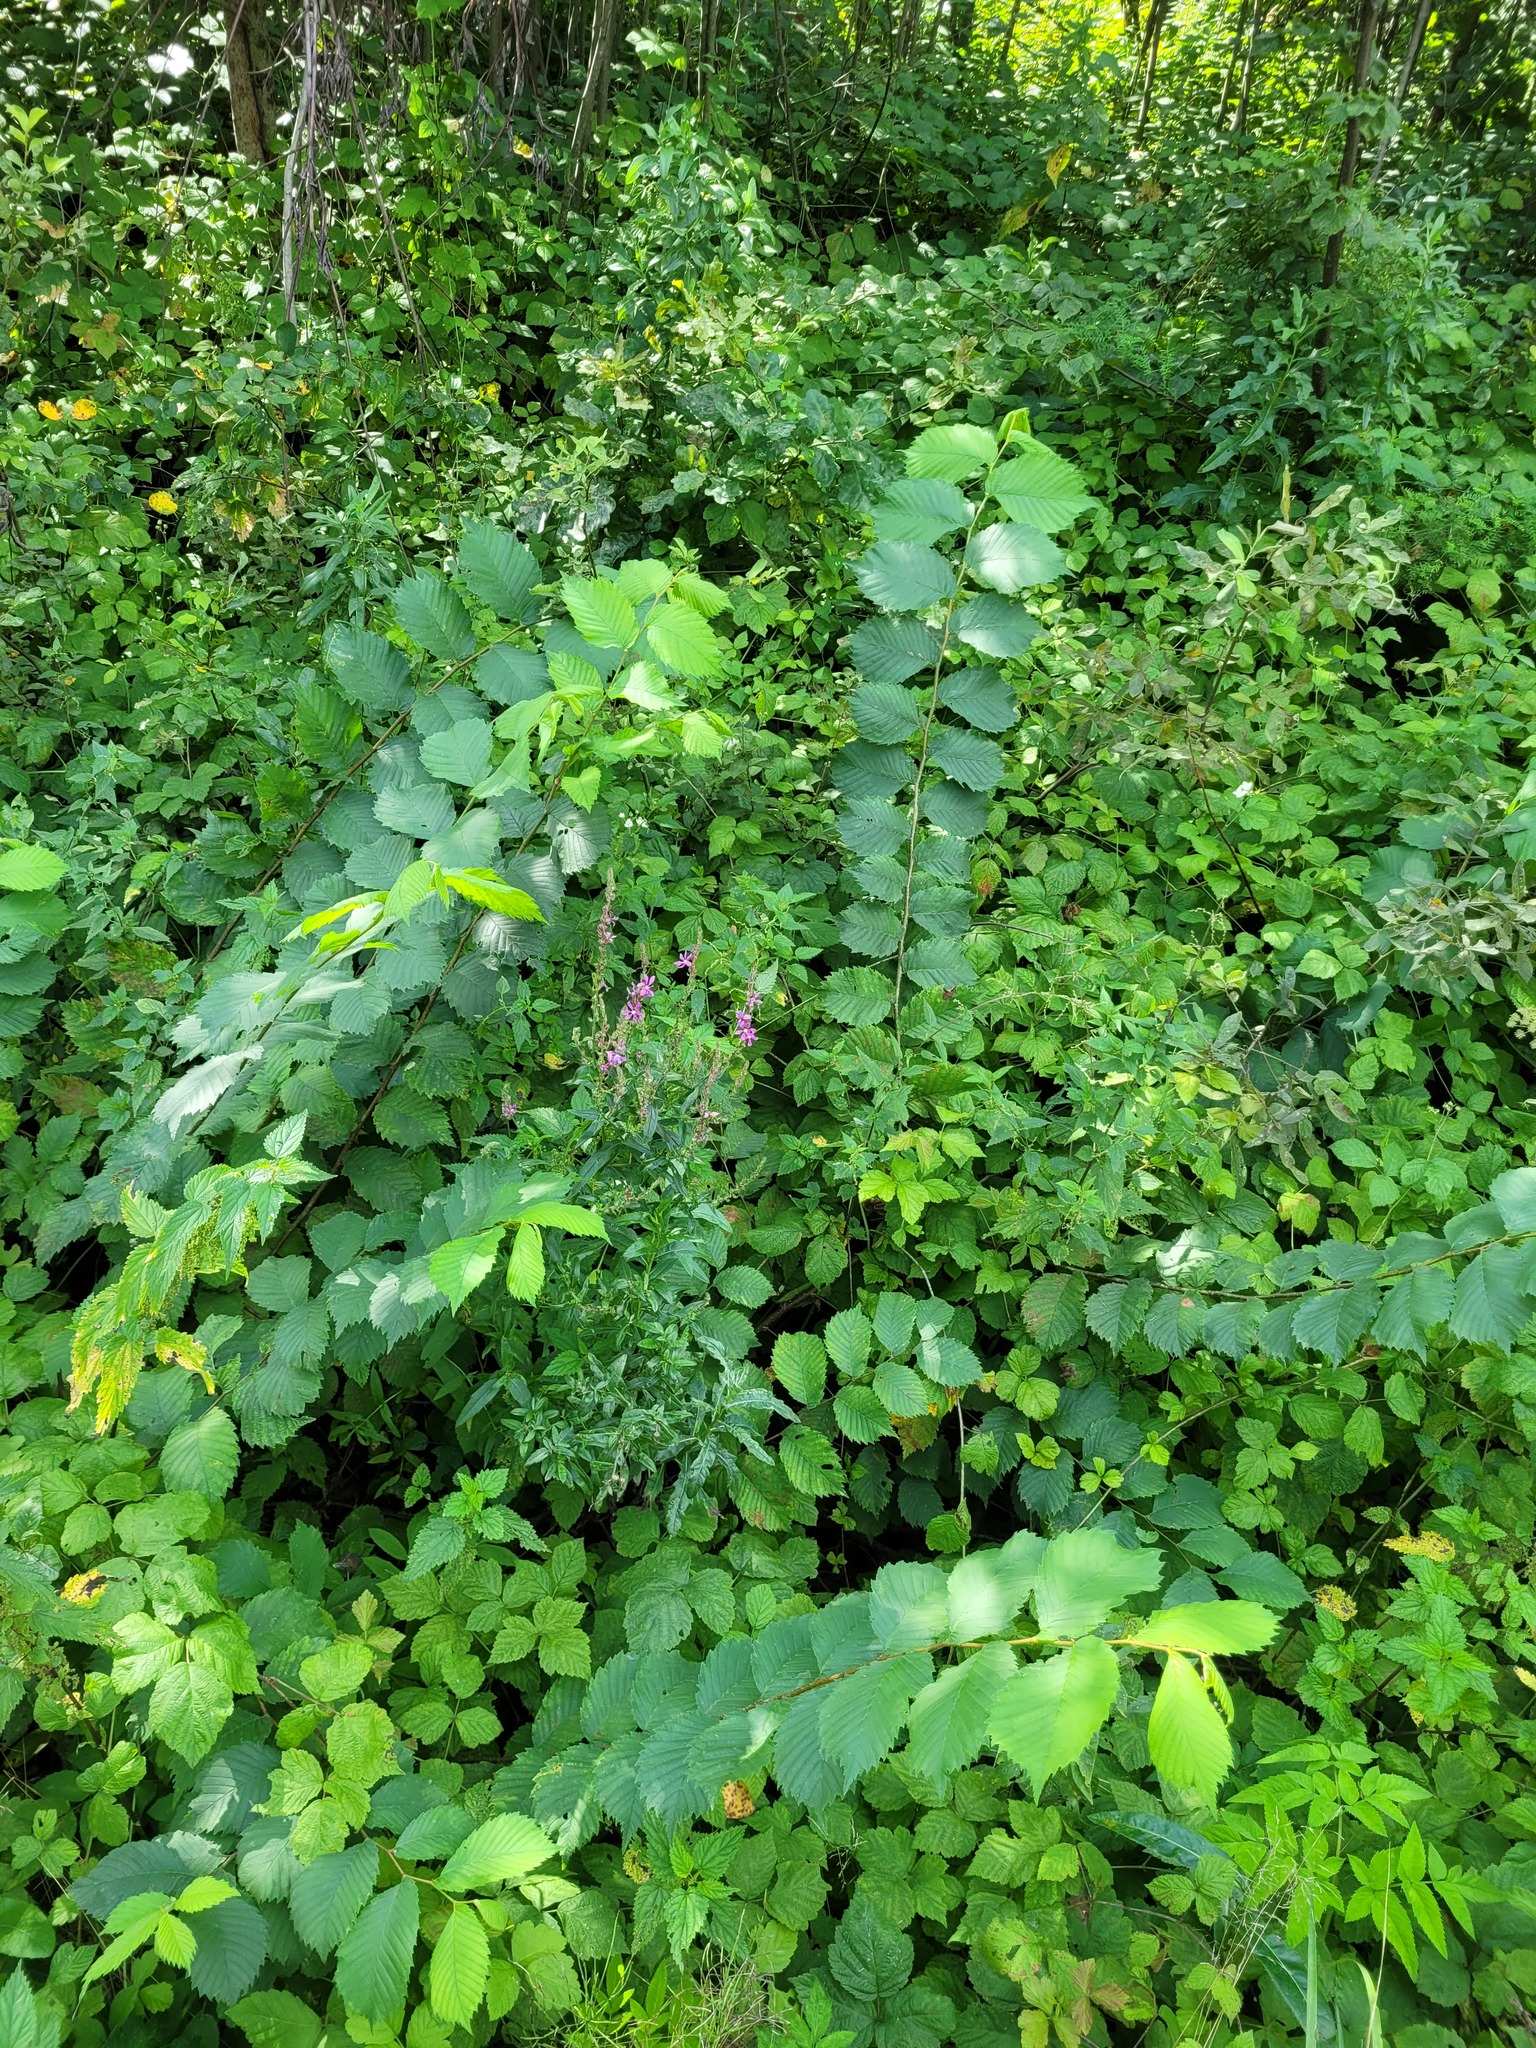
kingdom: Plantae
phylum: Tracheophyta
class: Magnoliopsida
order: Myrtales
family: Lythraceae
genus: Lythrum
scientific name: Lythrum salicaria
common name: Purple loosestrife
